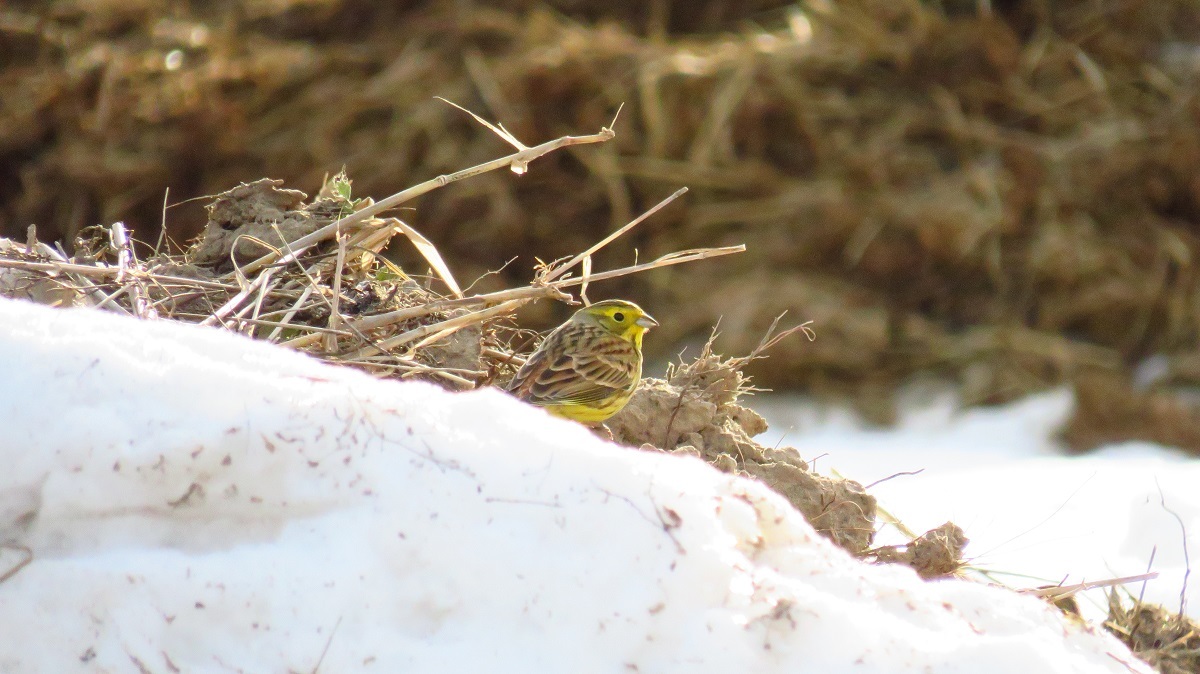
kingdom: Animalia
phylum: Chordata
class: Aves
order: Passeriformes
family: Emberizidae
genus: Emberiza
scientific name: Emberiza citrinella
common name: Yellowhammer
